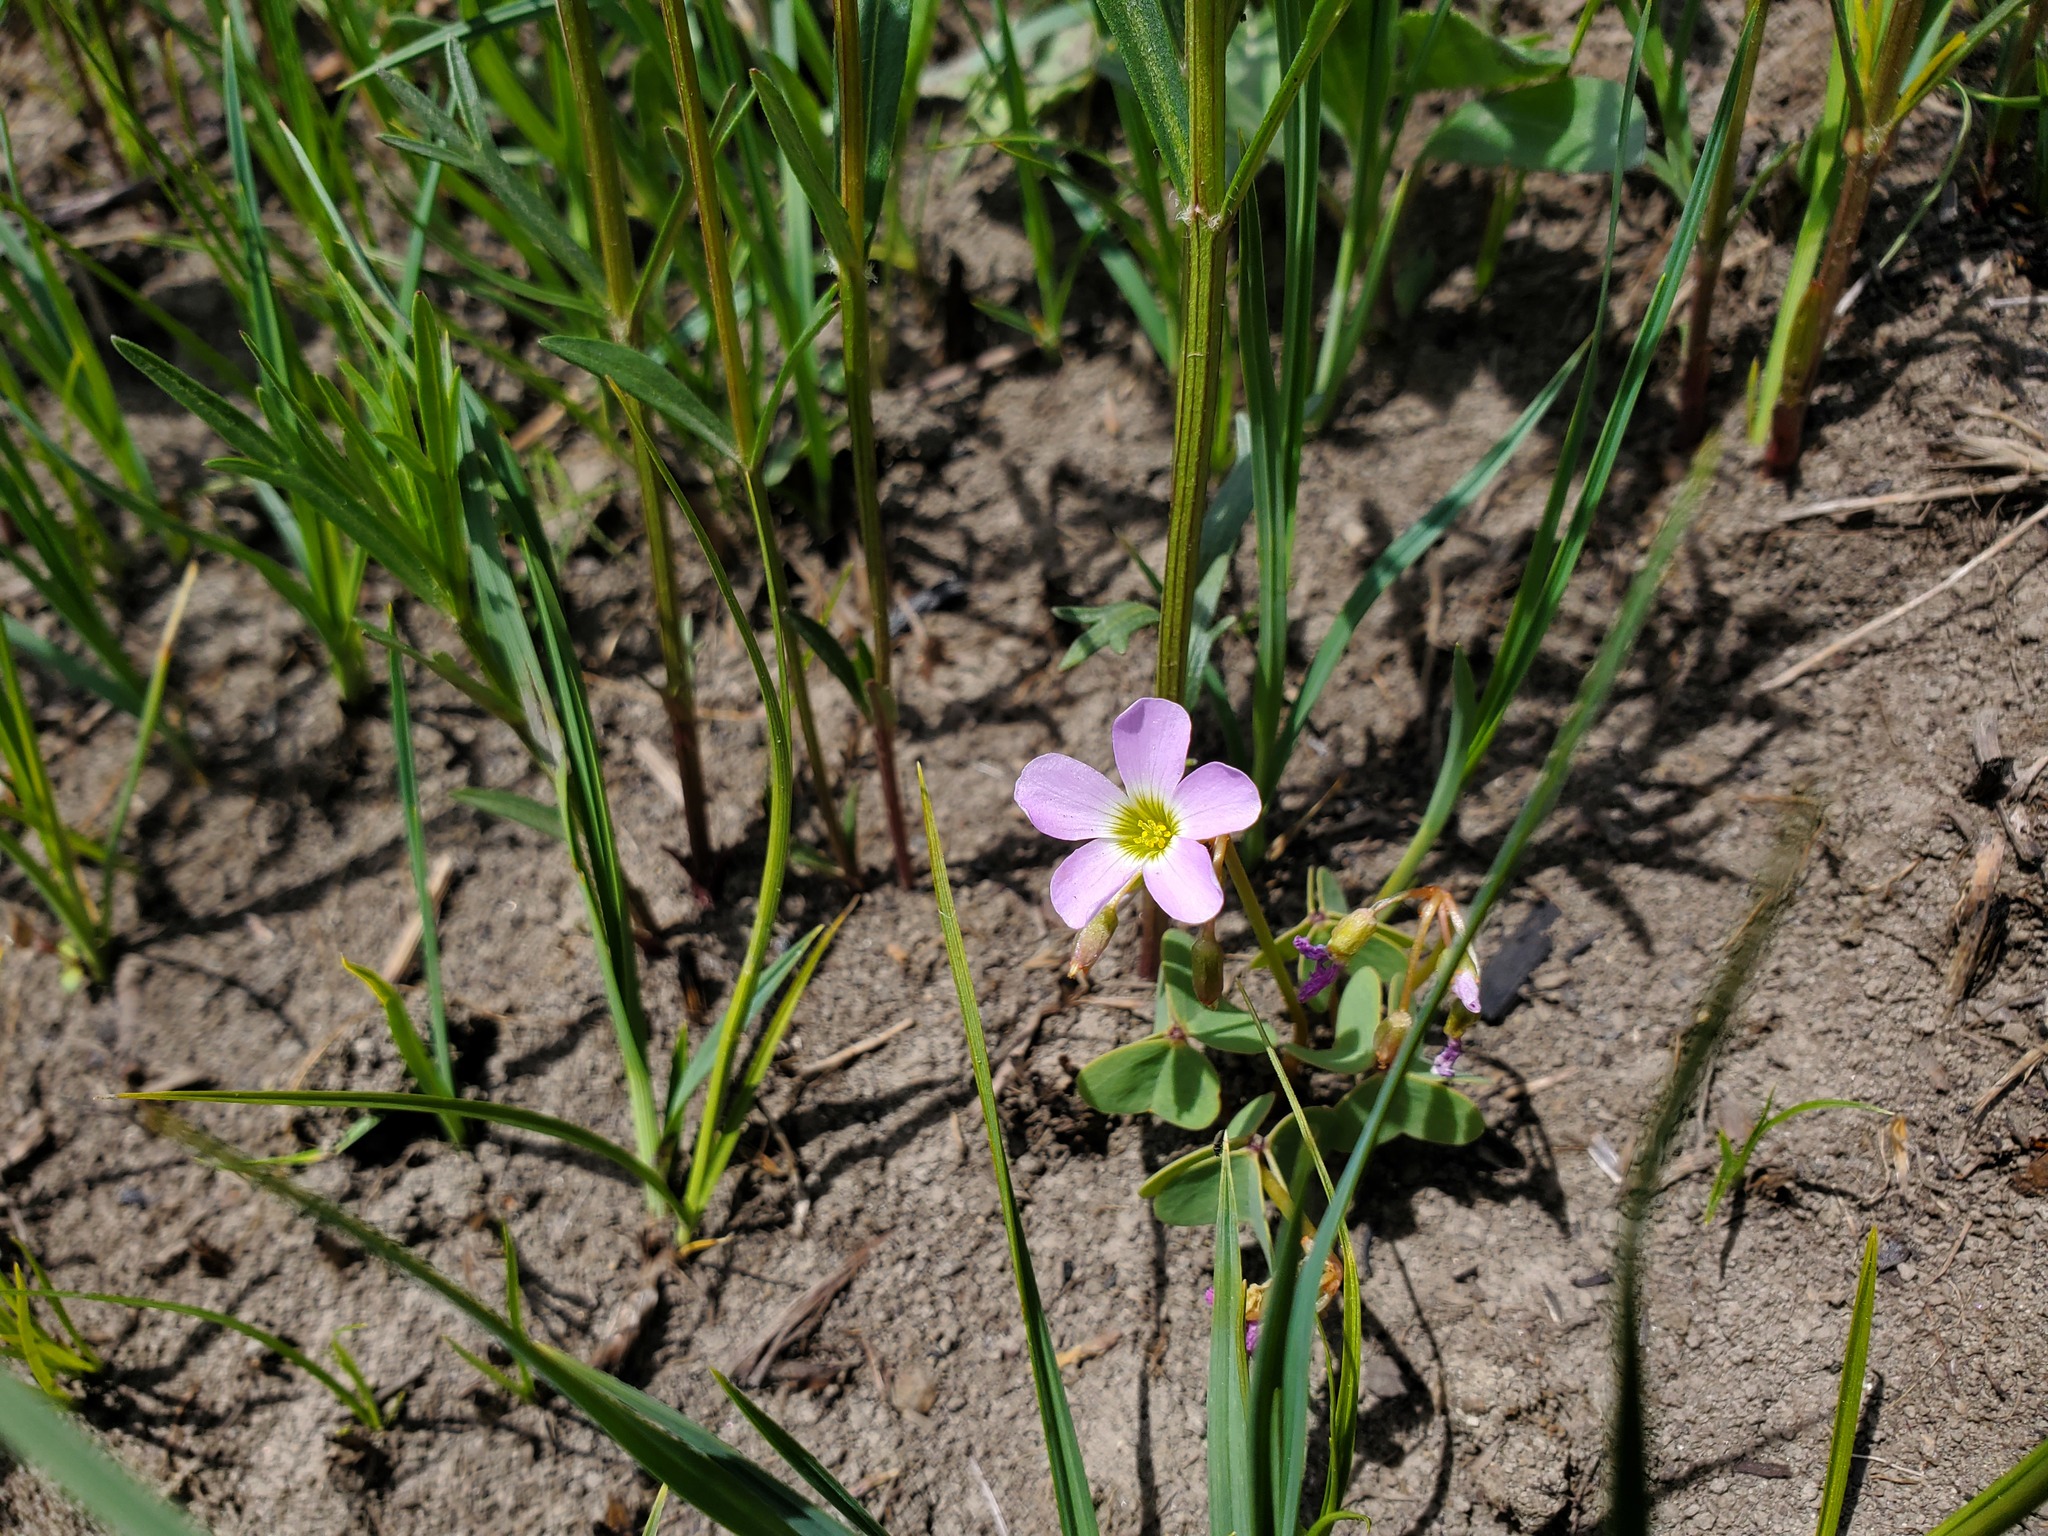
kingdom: Plantae
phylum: Tracheophyta
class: Magnoliopsida
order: Oxalidales
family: Oxalidaceae
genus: Oxalis
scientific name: Oxalis violacea
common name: Violet wood-sorrel
